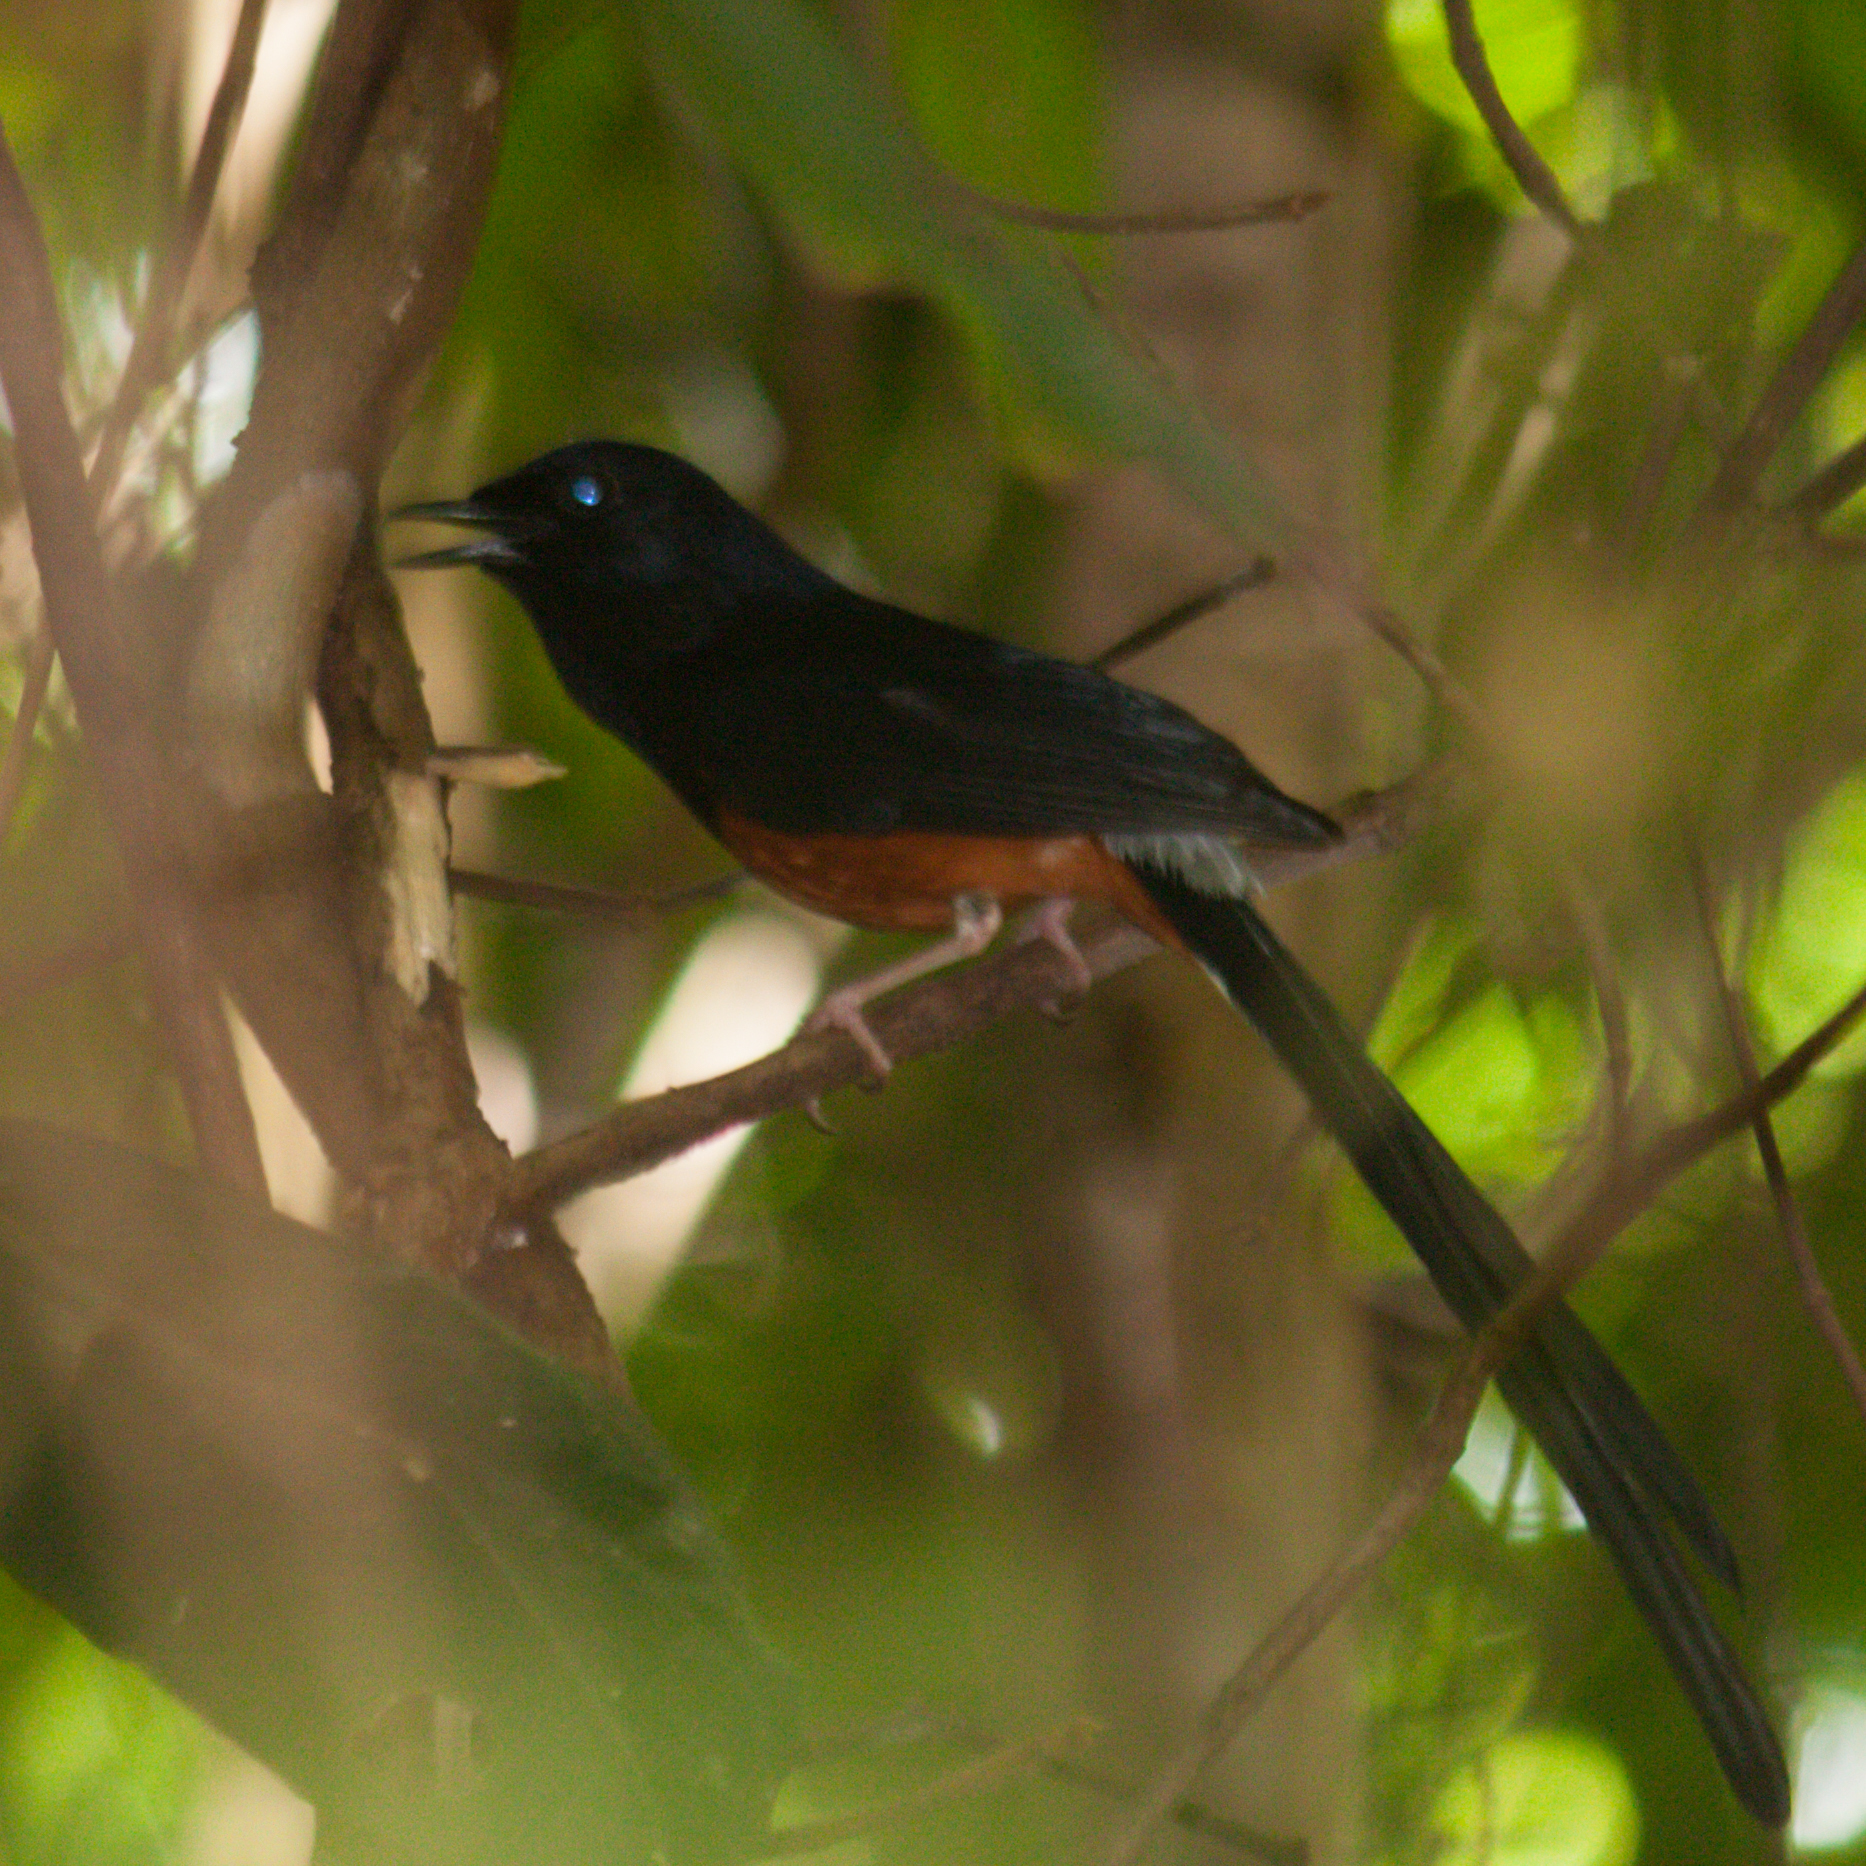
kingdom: Animalia
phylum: Chordata
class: Aves
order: Passeriformes
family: Muscicapidae
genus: Copsychus
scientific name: Copsychus malabaricus
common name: White-rumped shama
